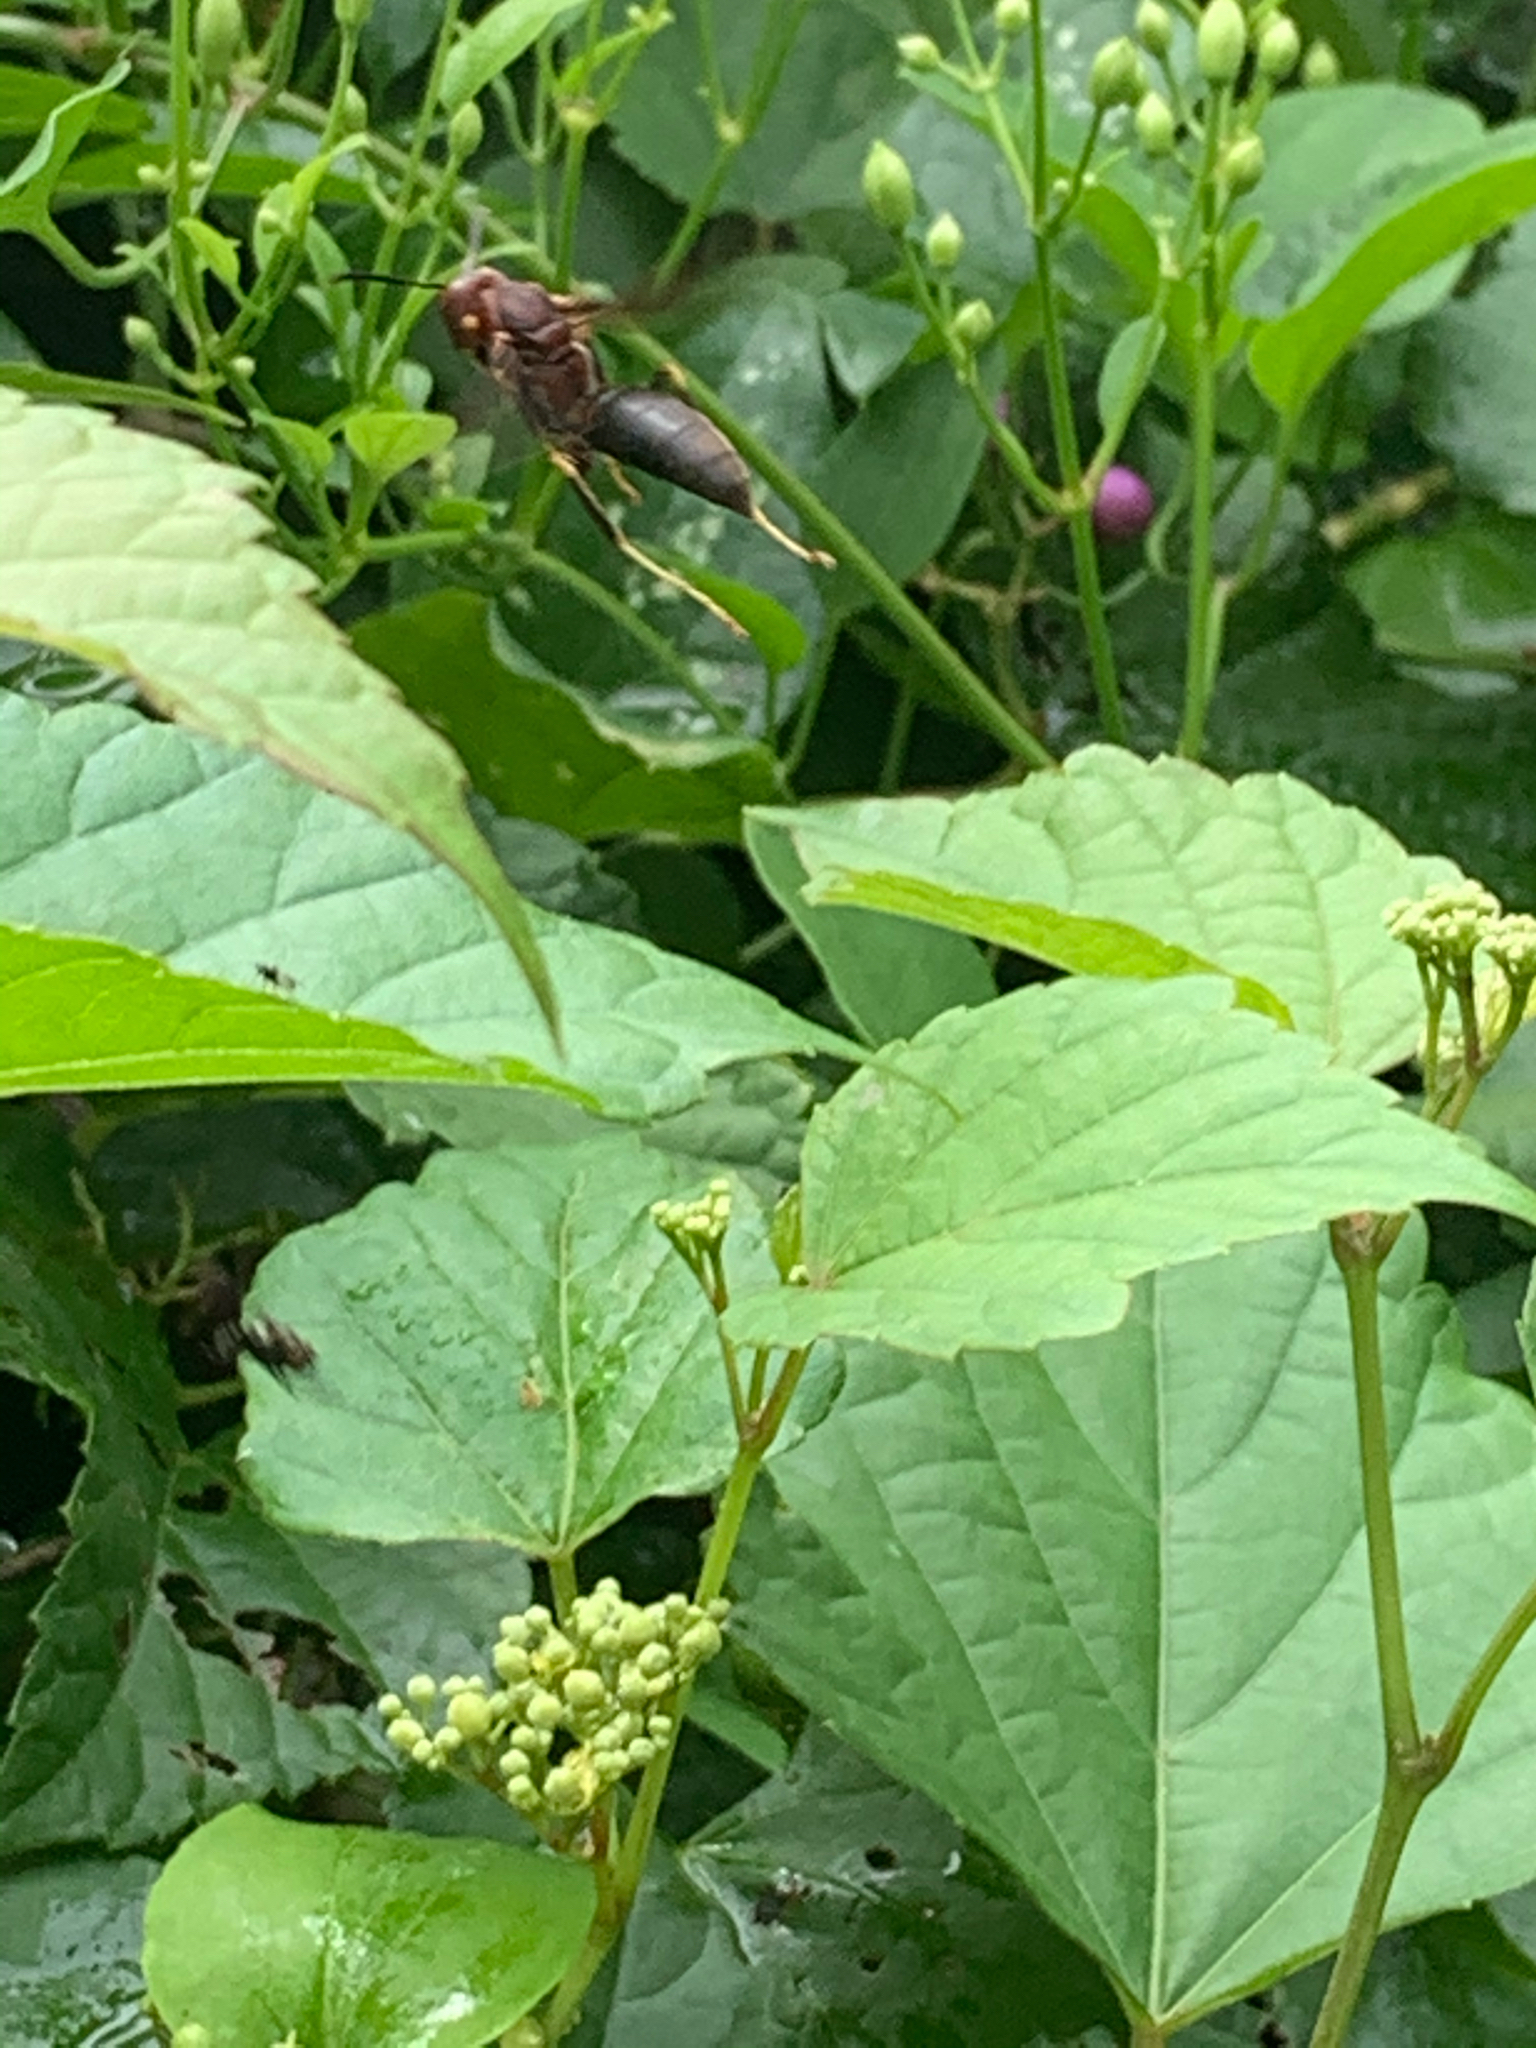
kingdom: Animalia
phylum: Arthropoda
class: Insecta
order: Hymenoptera
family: Eumenidae
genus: Polistes
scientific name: Polistes metricus
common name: Metric paper wasp
